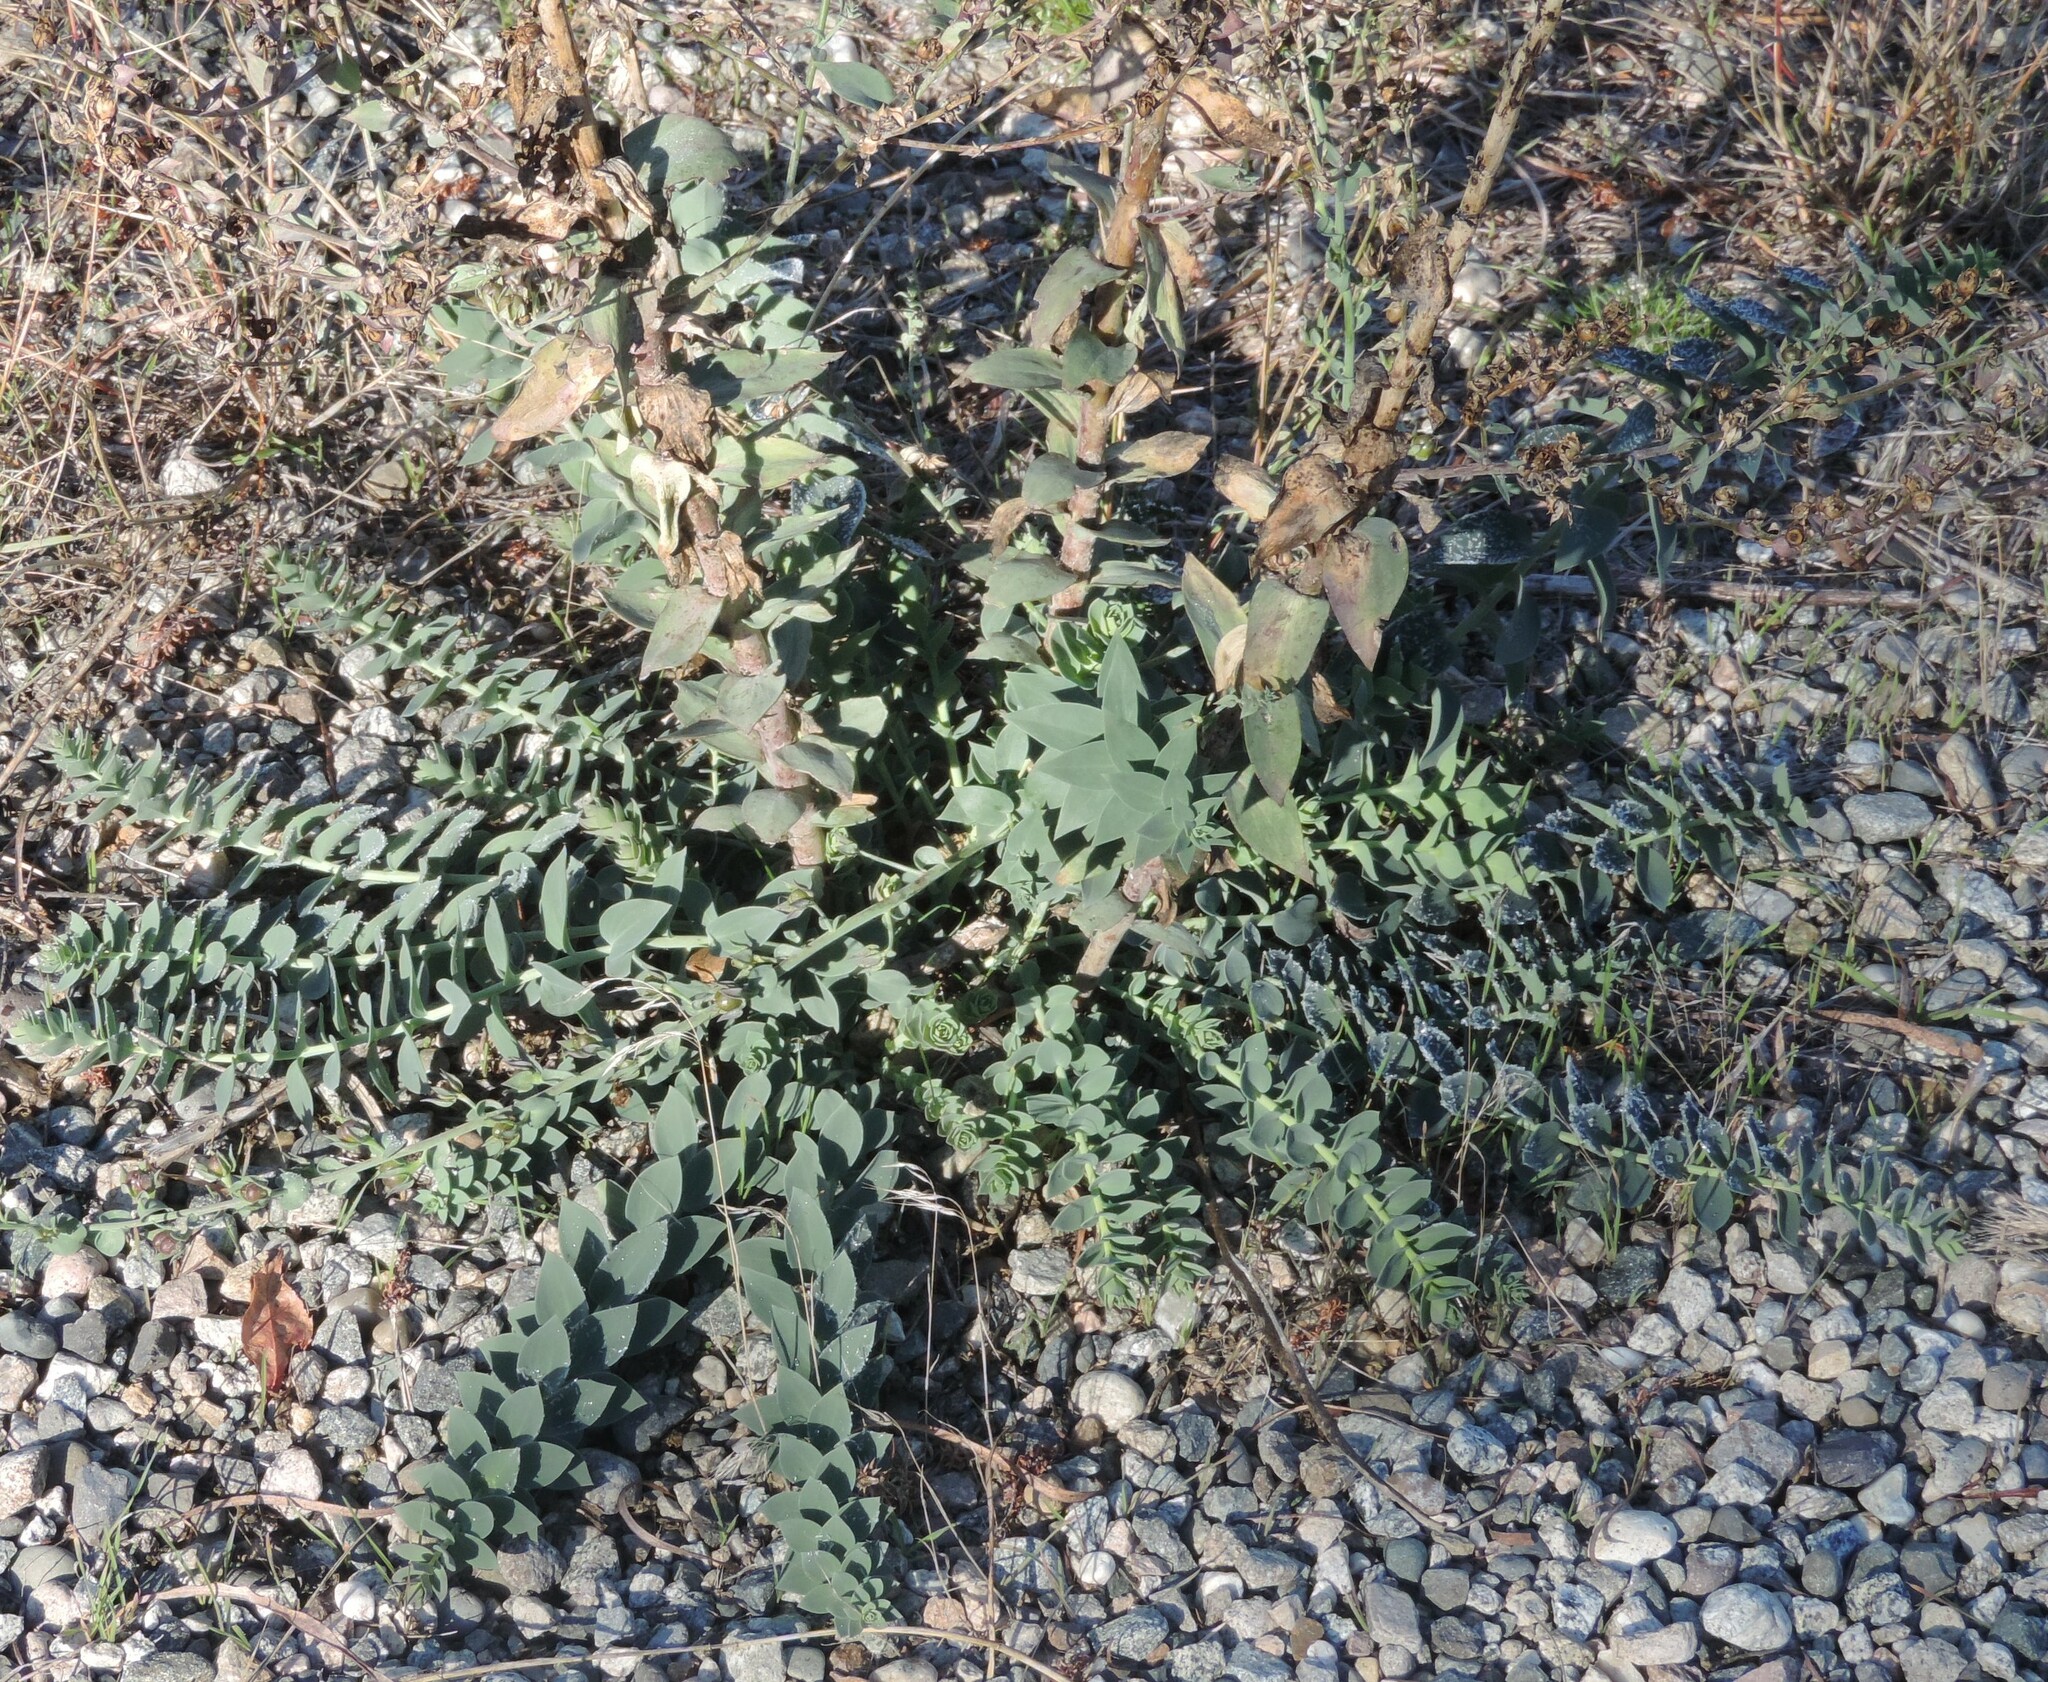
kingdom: Plantae
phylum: Tracheophyta
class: Magnoliopsida
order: Lamiales
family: Plantaginaceae
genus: Linaria
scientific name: Linaria dalmatica
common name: Dalmatian toadflax
